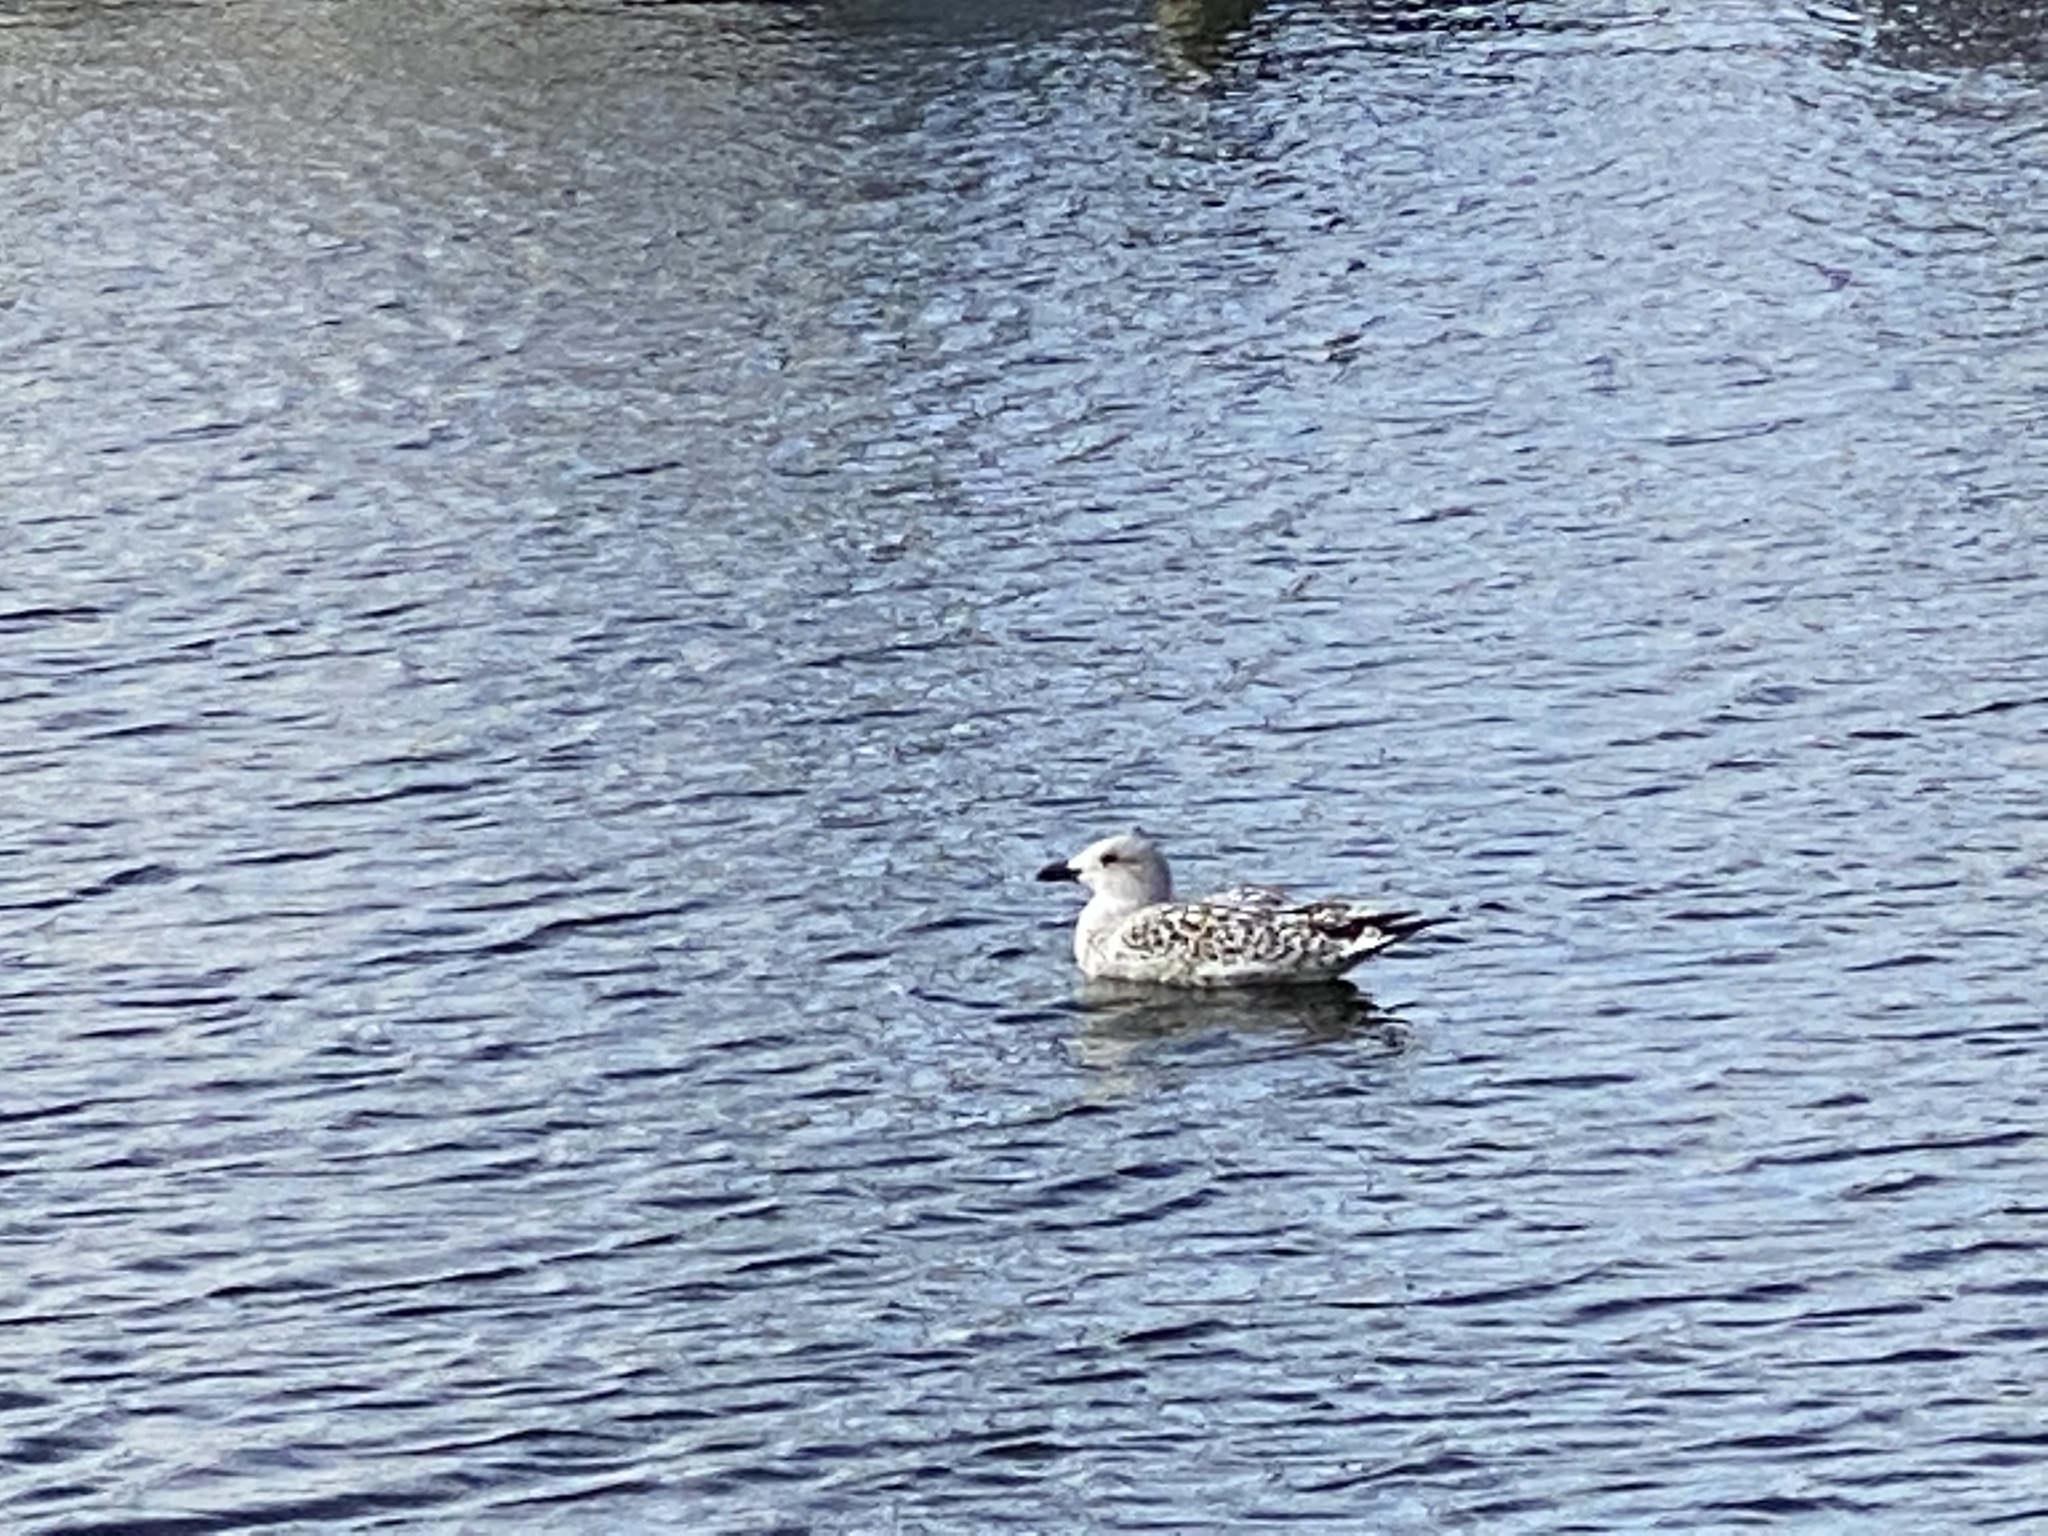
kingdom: Animalia
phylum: Chordata
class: Aves
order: Charadriiformes
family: Laridae
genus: Larus
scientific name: Larus marinus
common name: Great black-backed gull
